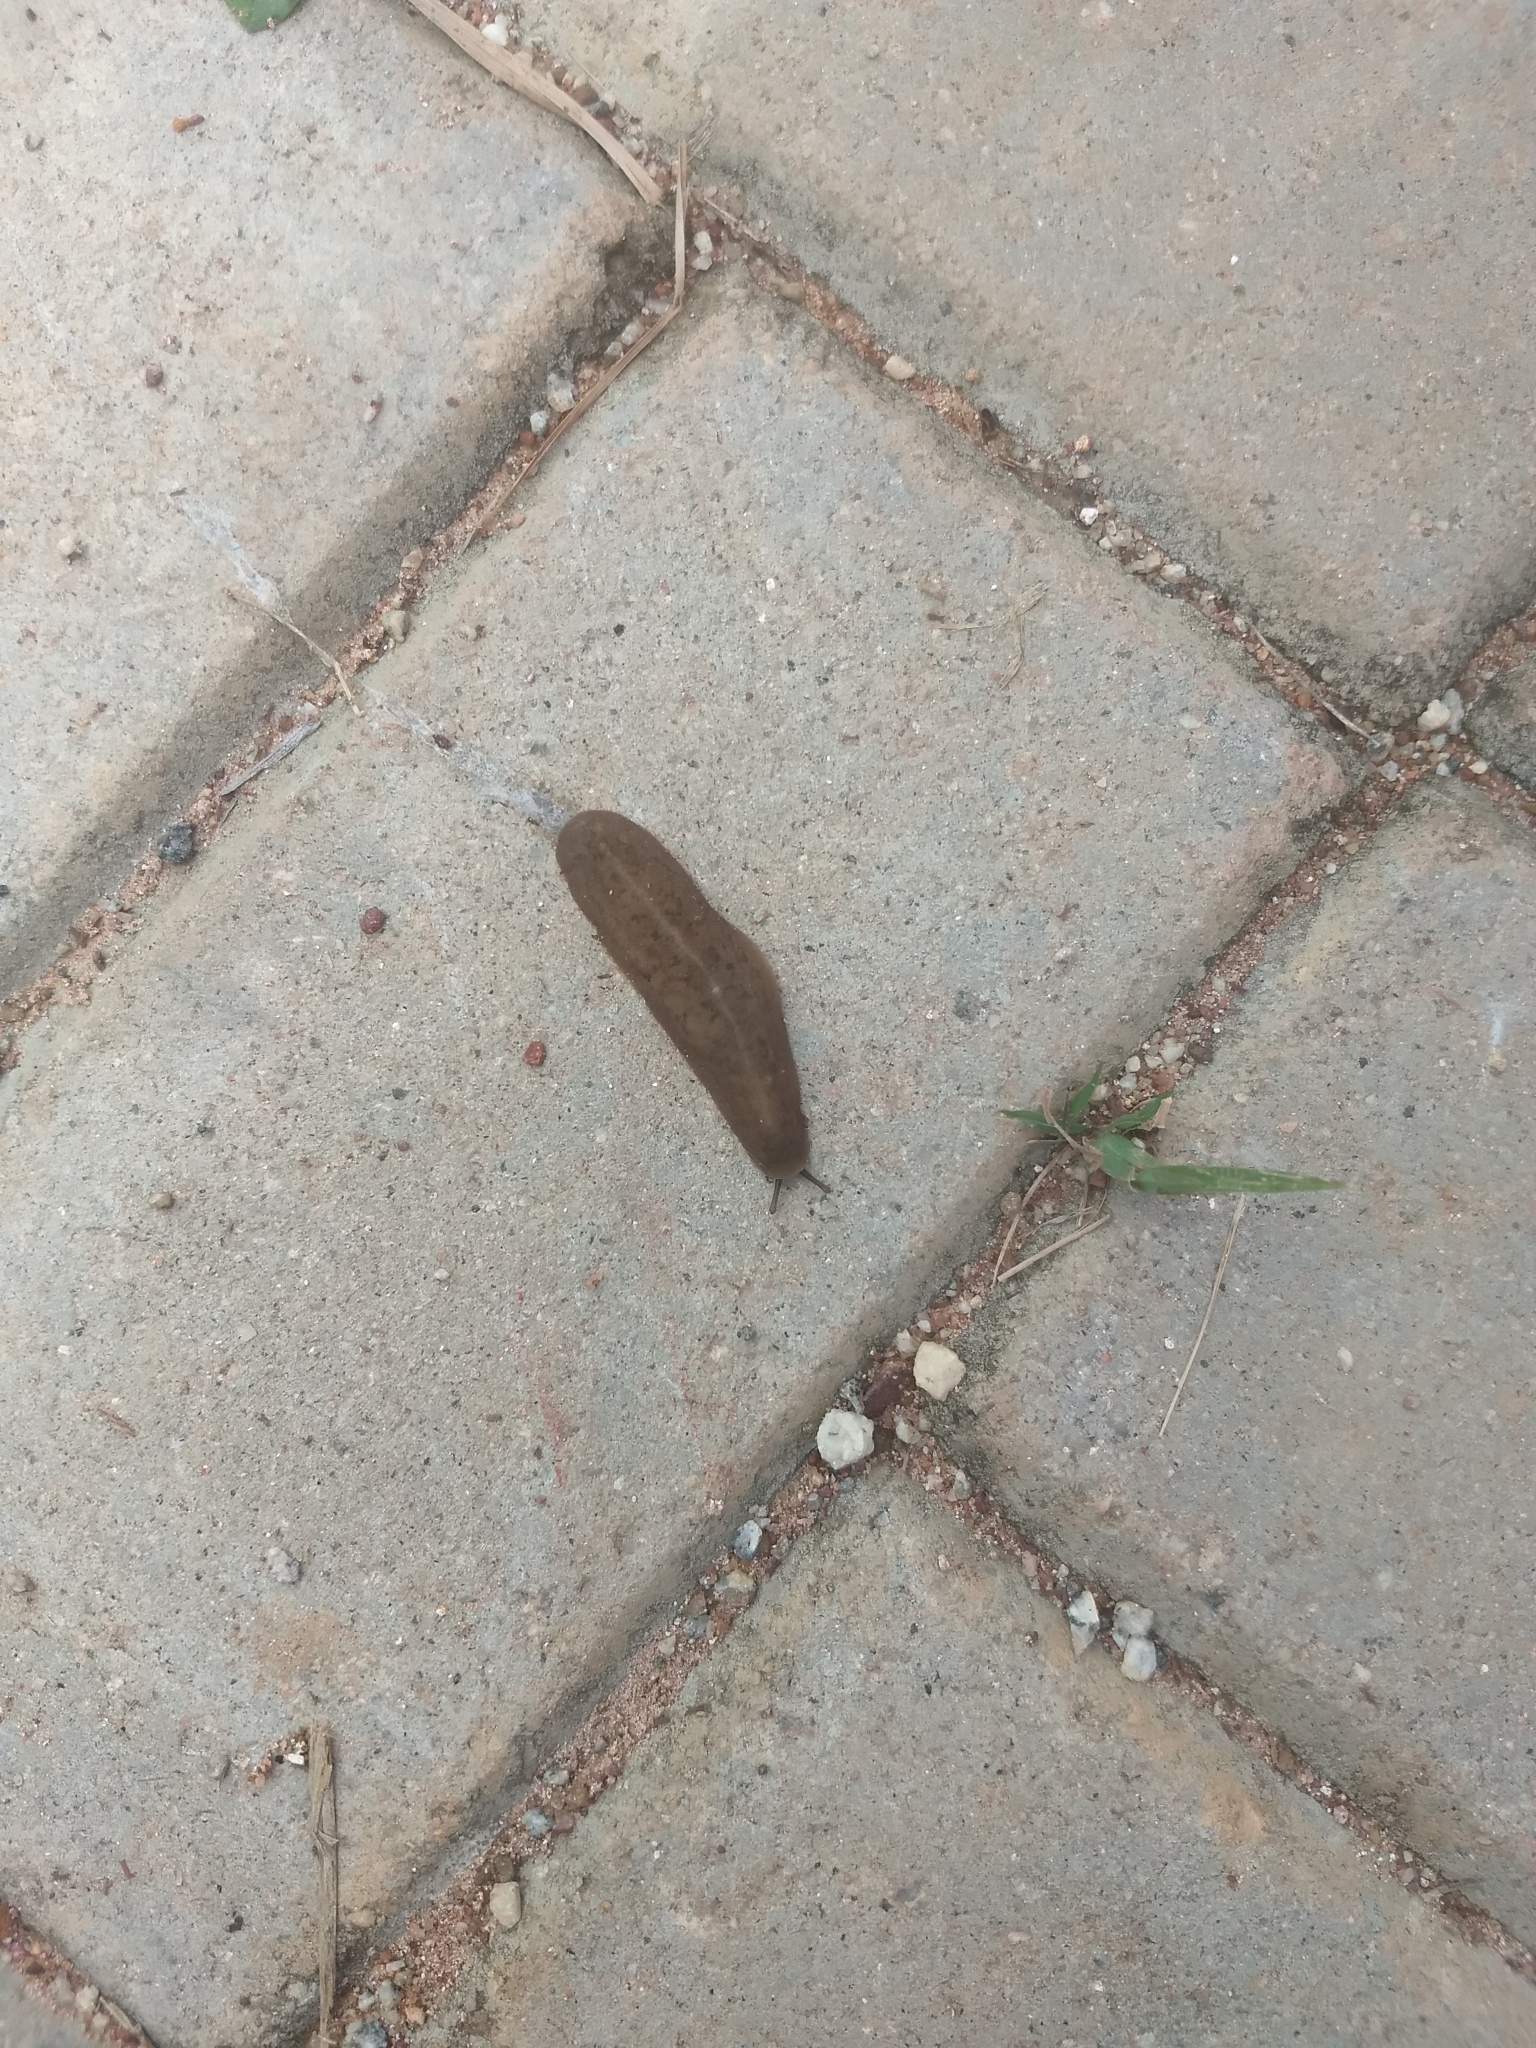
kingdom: Animalia
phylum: Mollusca
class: Gastropoda
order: Systellommatophora
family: Veronicellidae
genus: Laevicaulis
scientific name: Laevicaulis alte
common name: Tropical leatherleaf
